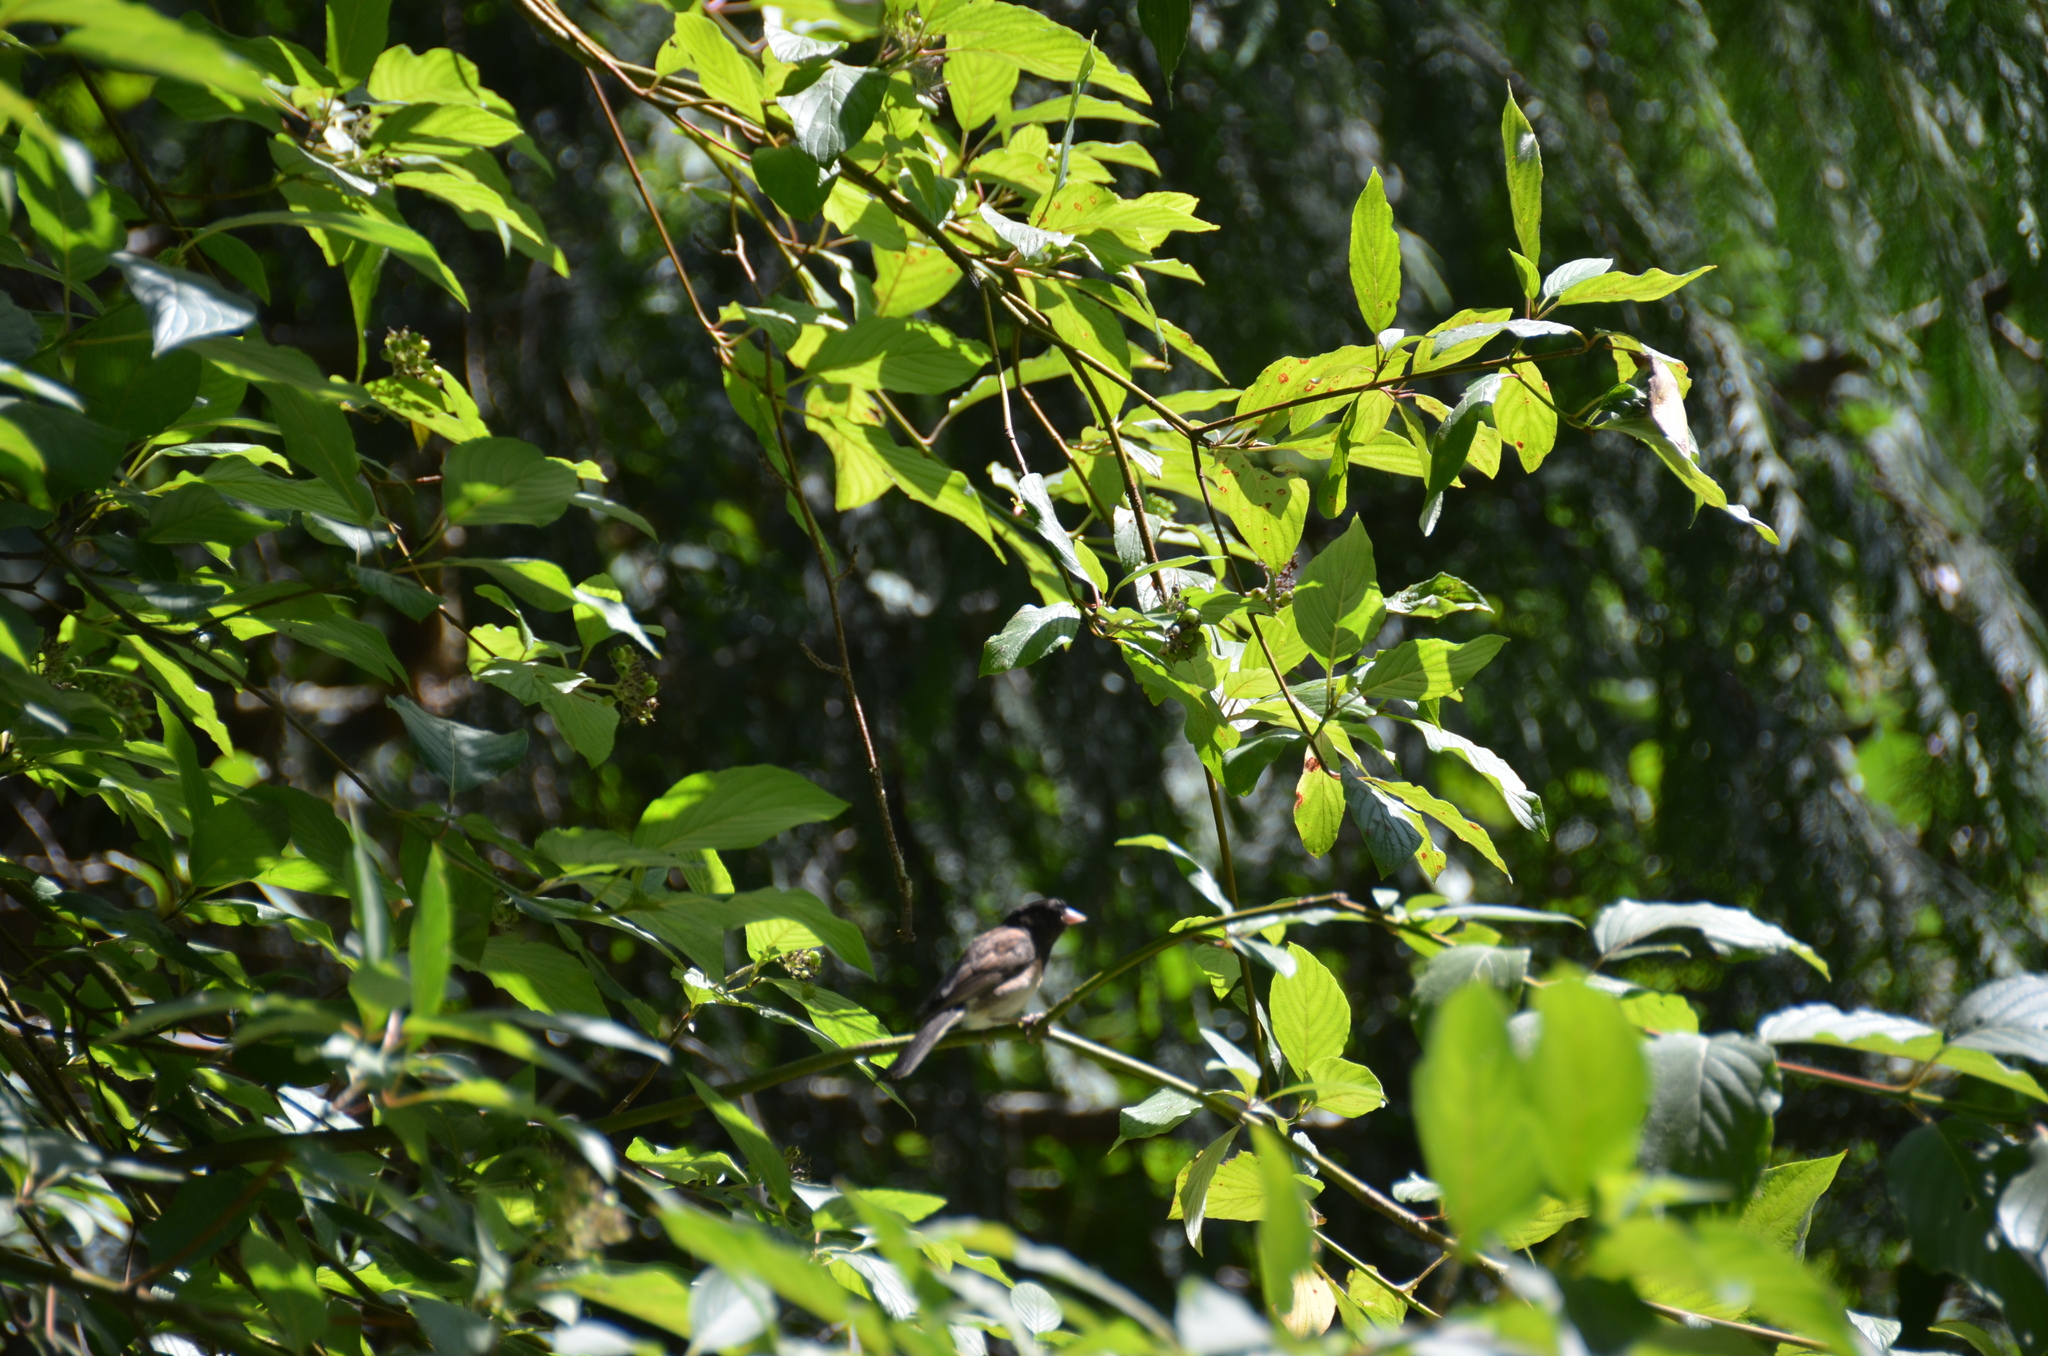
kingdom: Animalia
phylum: Chordata
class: Aves
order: Passeriformes
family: Passerellidae
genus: Junco
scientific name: Junco hyemalis
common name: Dark-eyed junco
